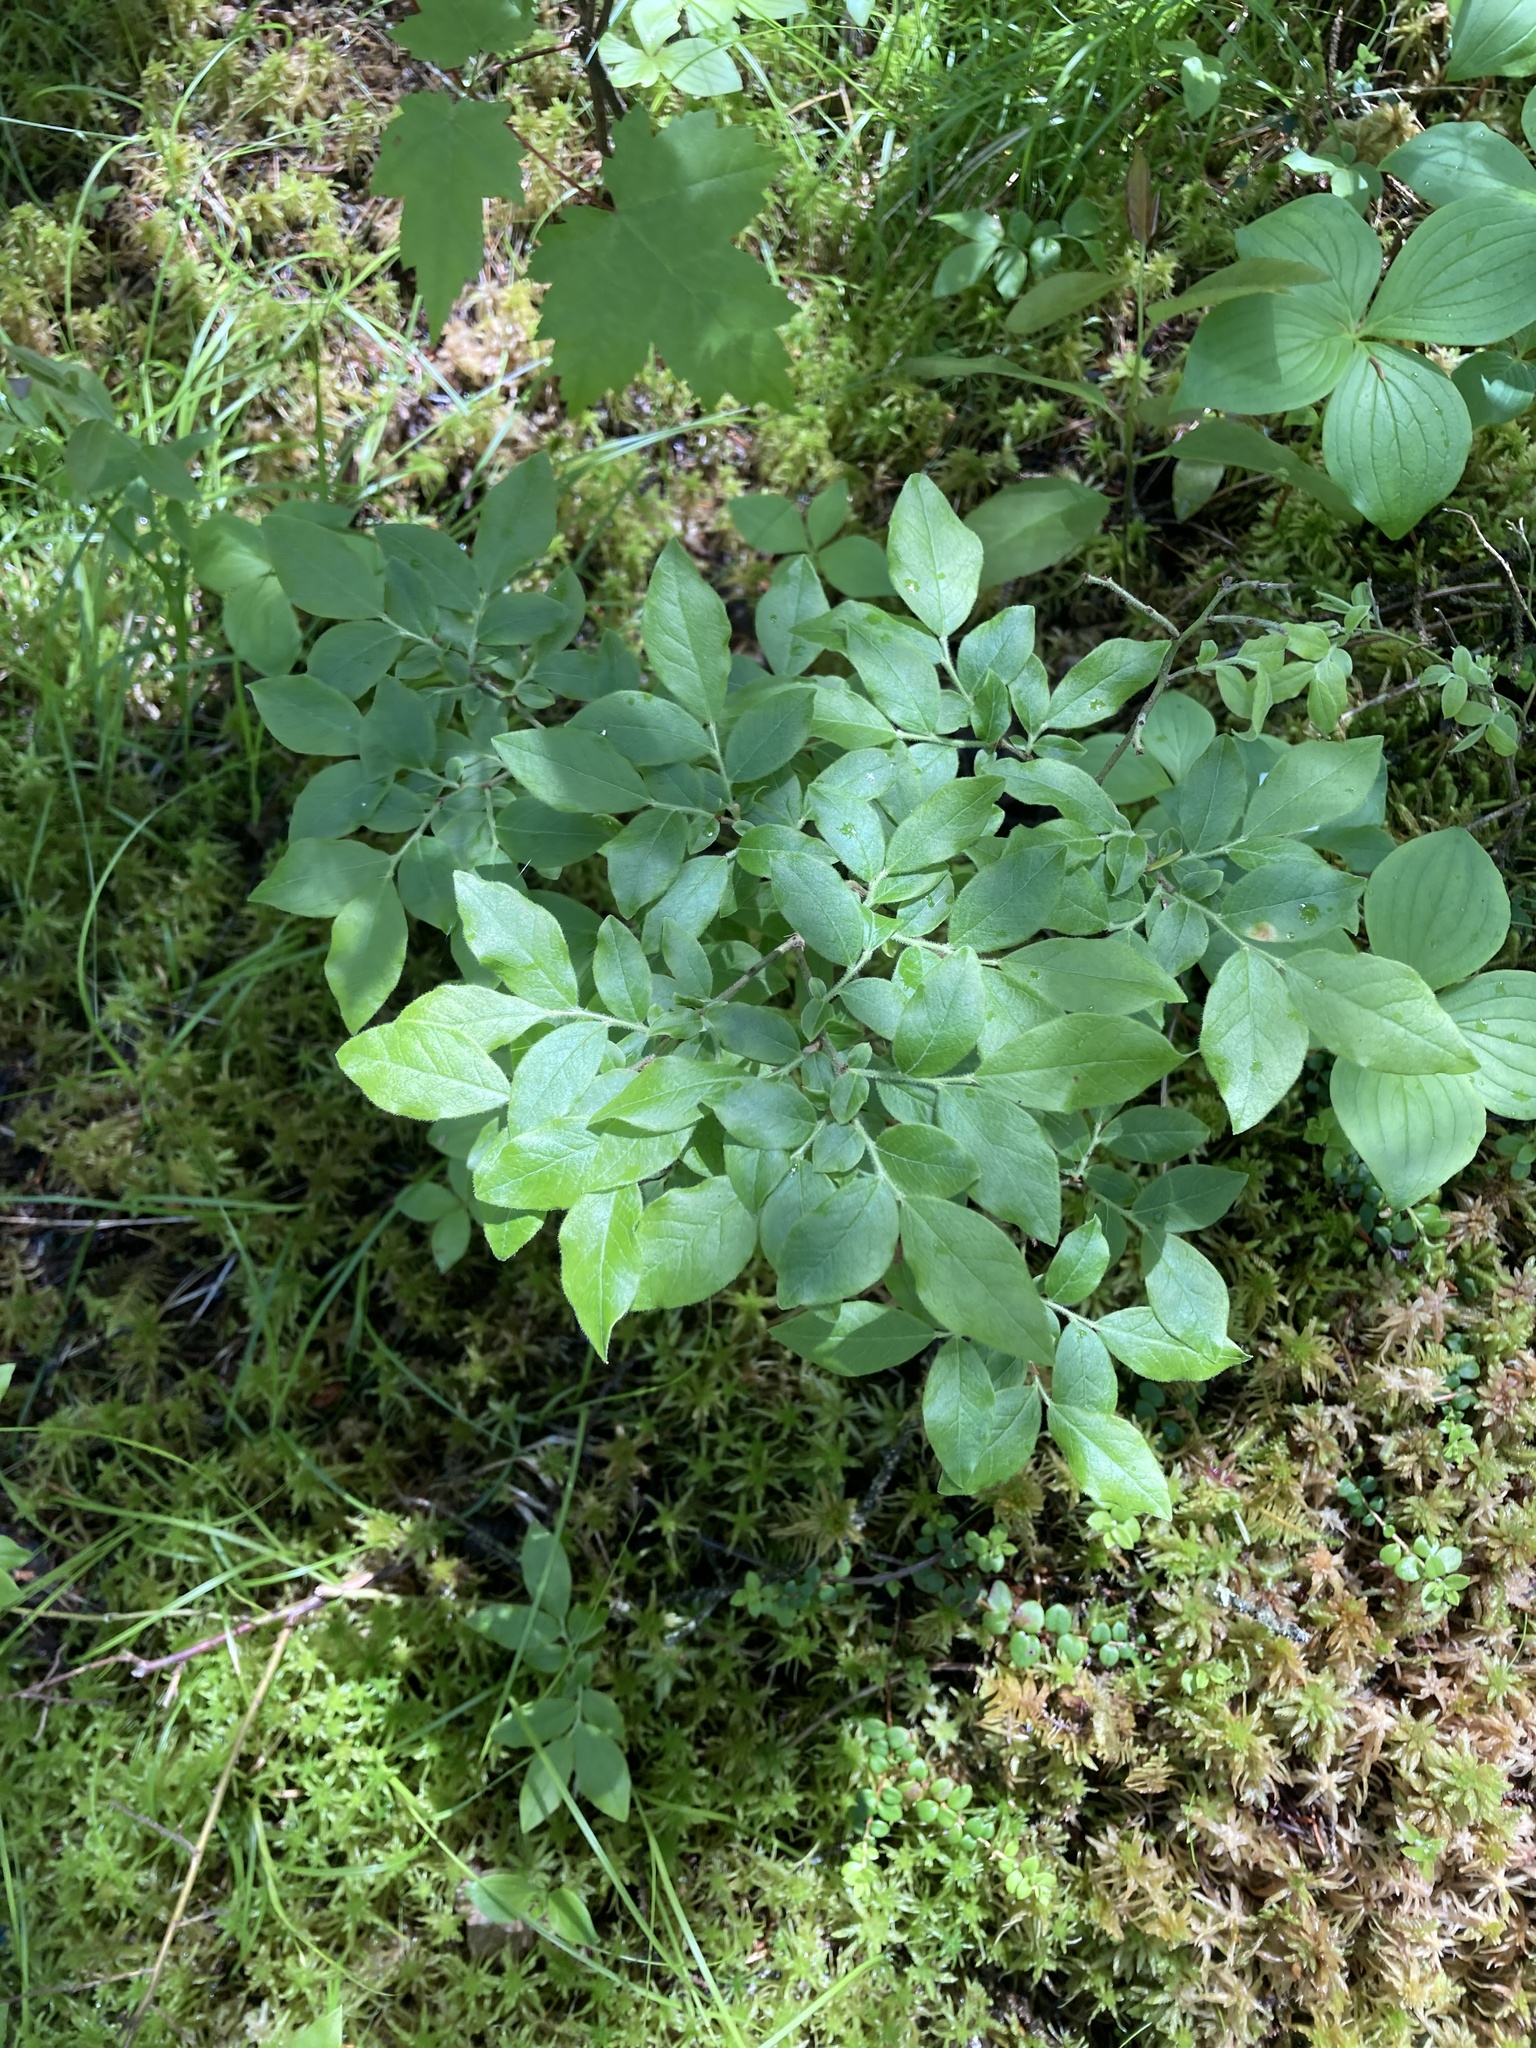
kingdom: Plantae
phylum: Tracheophyta
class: Magnoliopsida
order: Ericales
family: Ericaceae
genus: Vaccinium
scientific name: Vaccinium myrtilloides
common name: Canada blueberry
